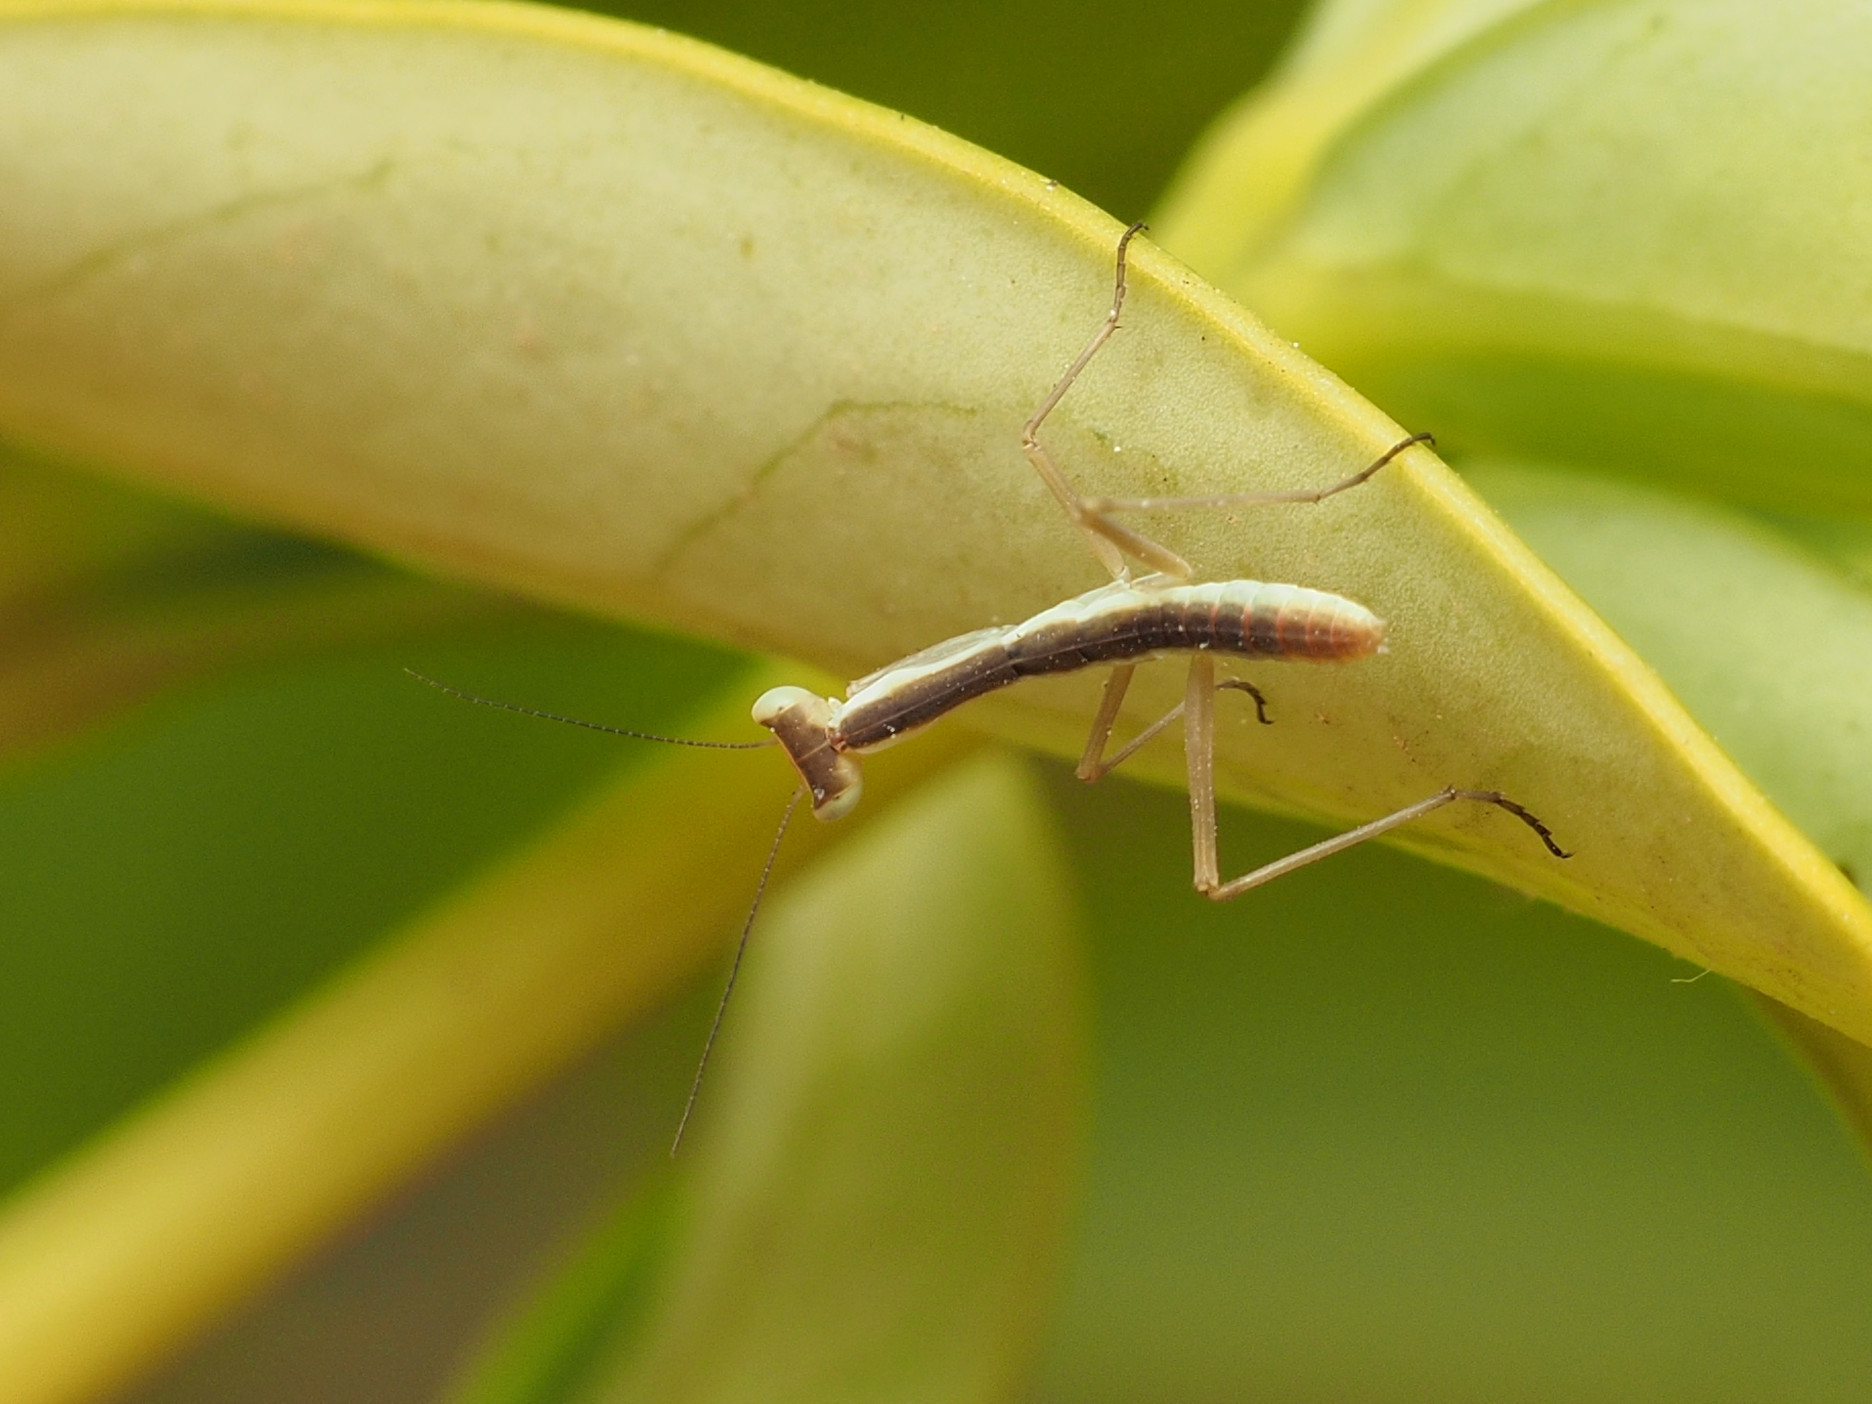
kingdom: Animalia
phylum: Arthropoda
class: Insecta
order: Mantodea
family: Eremiaphilidae
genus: Iris
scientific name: Iris oratoria
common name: Mediterranean mantis
